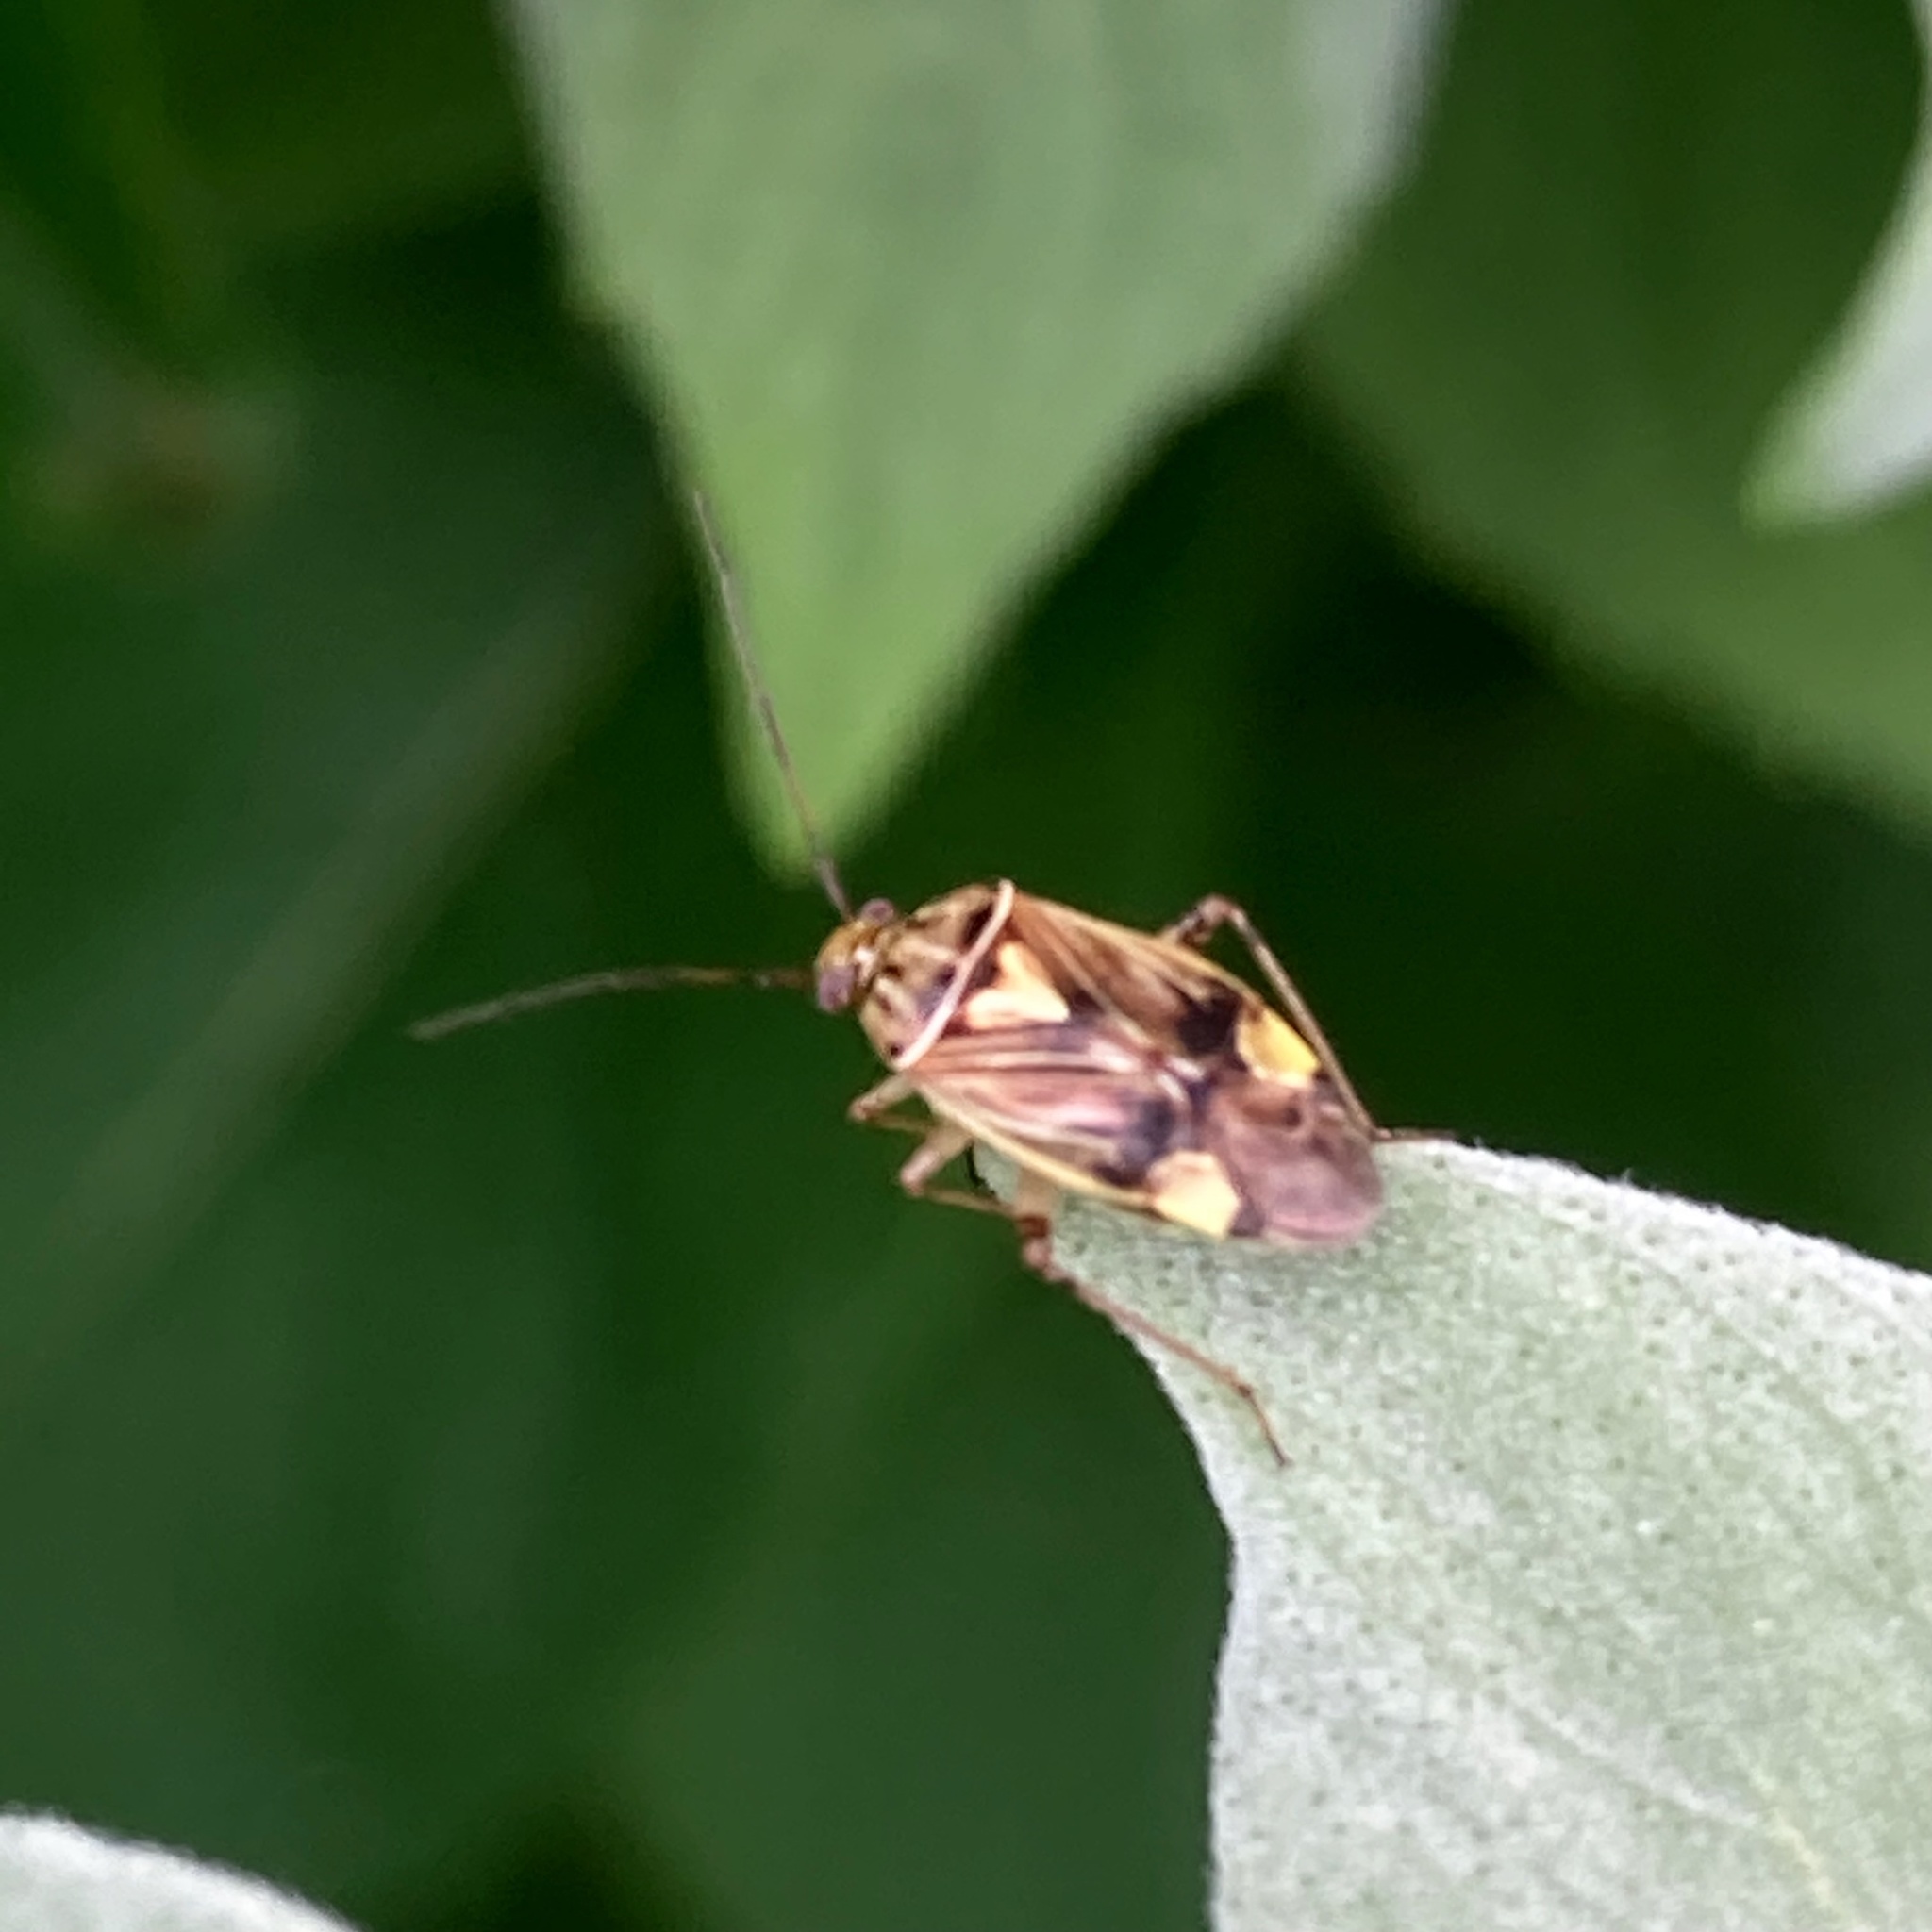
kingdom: Animalia
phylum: Arthropoda
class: Insecta
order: Hemiptera
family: Miridae
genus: Lygus
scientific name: Lygus lineolaris
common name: North american tarnished plant bug
